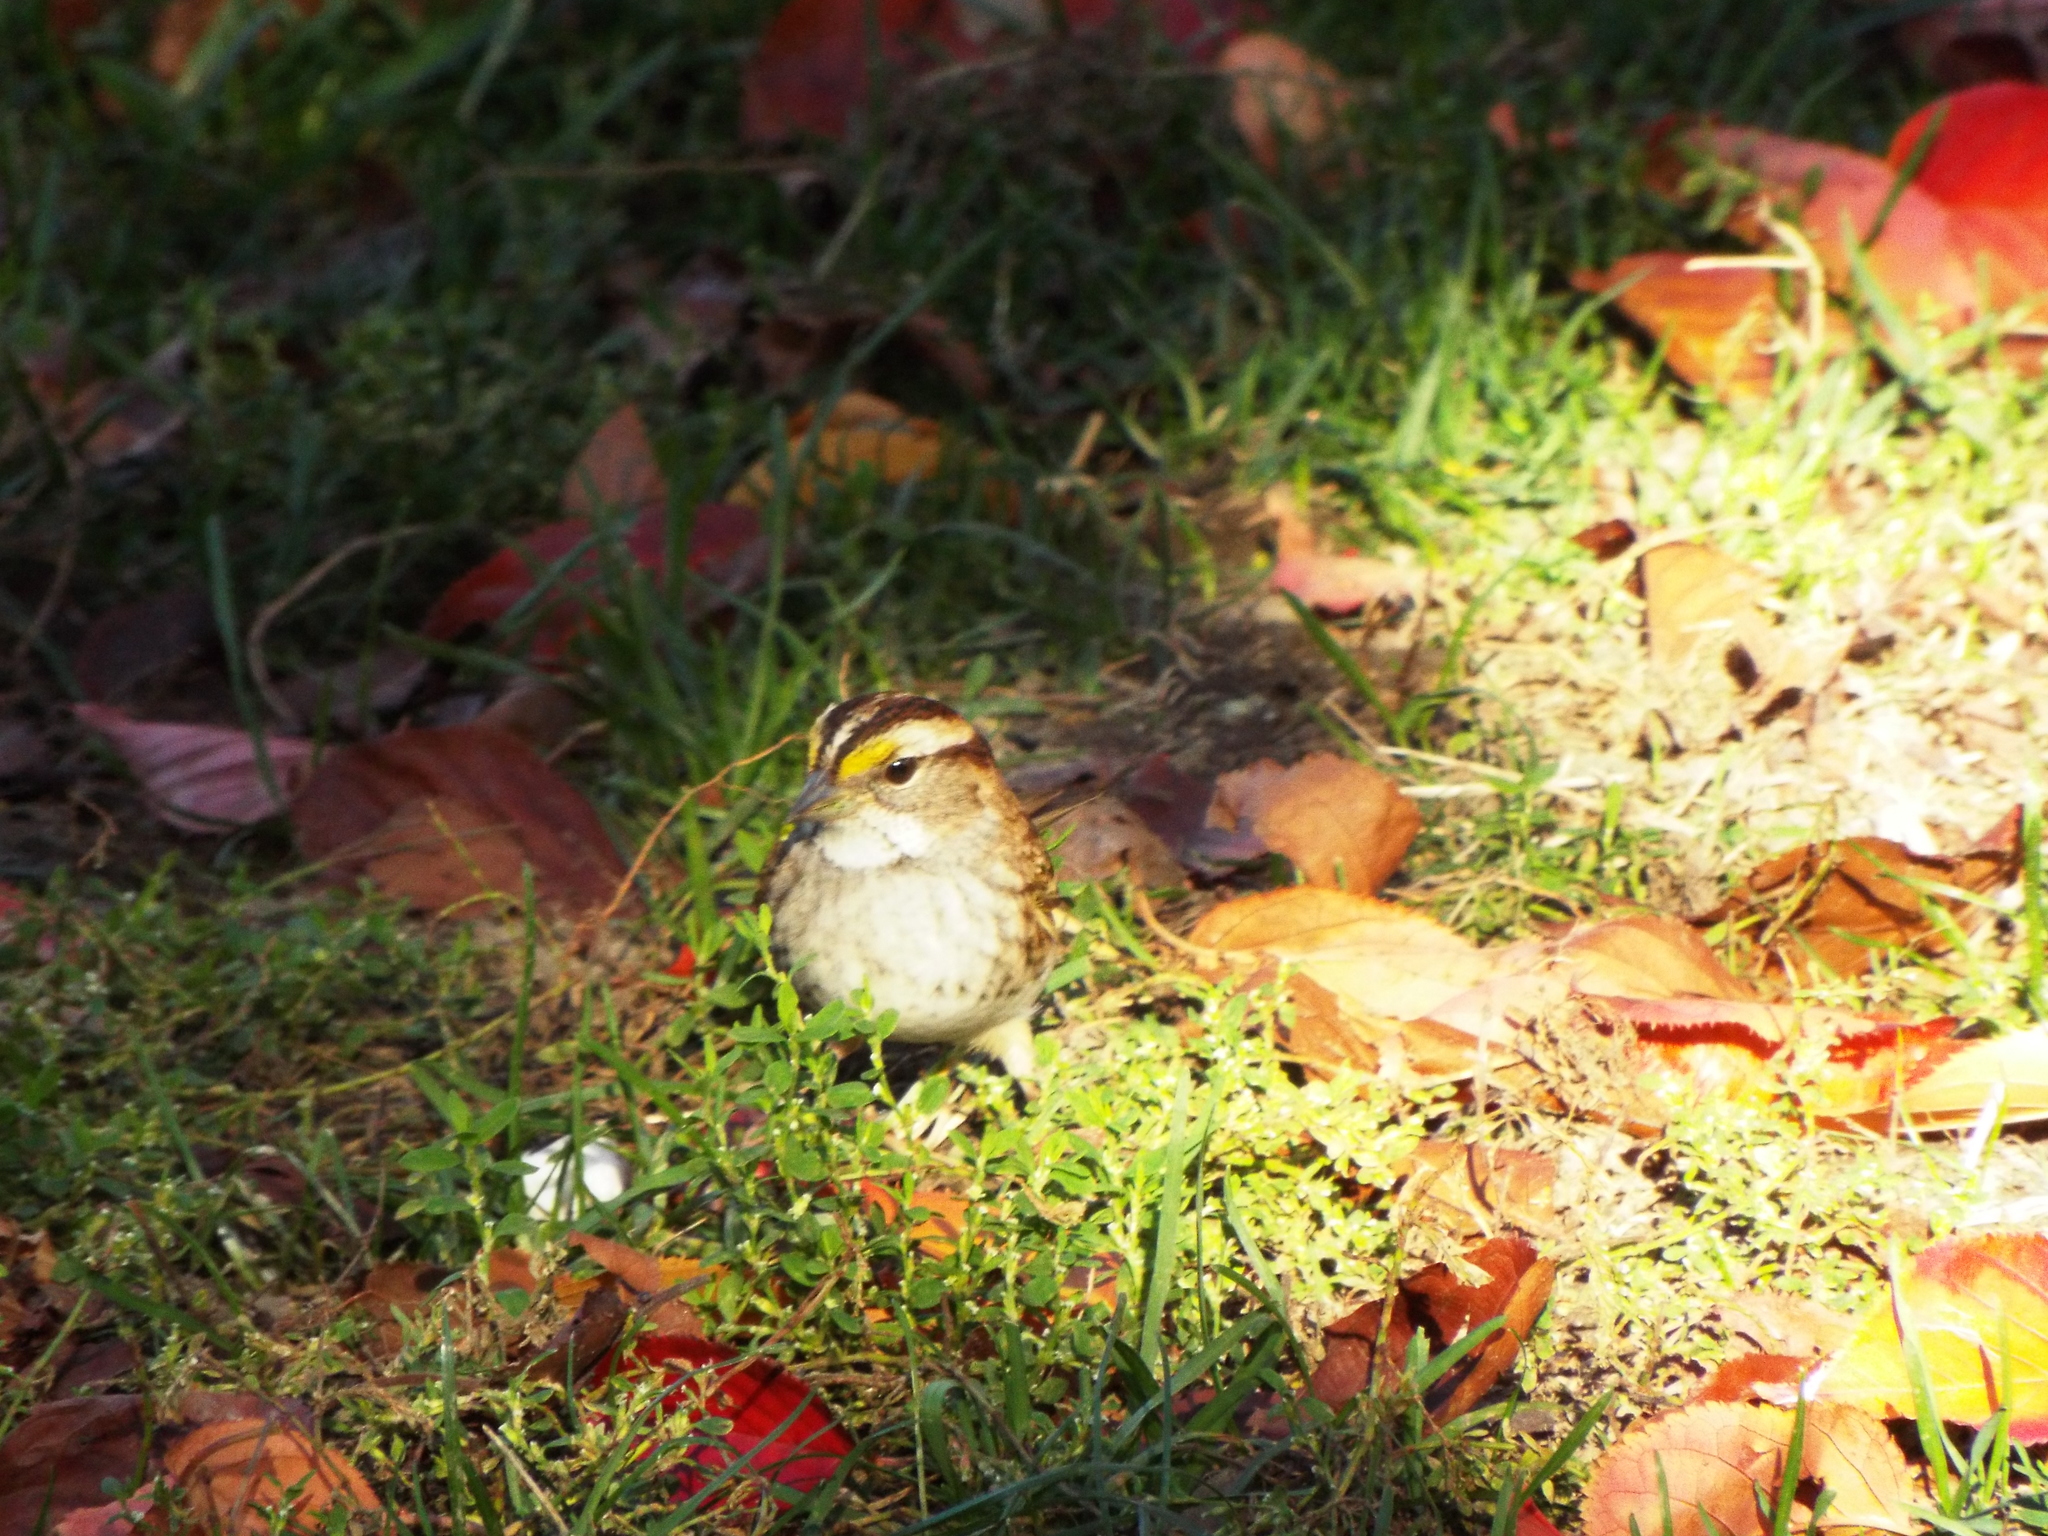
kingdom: Animalia
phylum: Chordata
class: Aves
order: Passeriformes
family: Passerellidae
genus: Zonotrichia
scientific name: Zonotrichia albicollis
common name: White-throated sparrow
